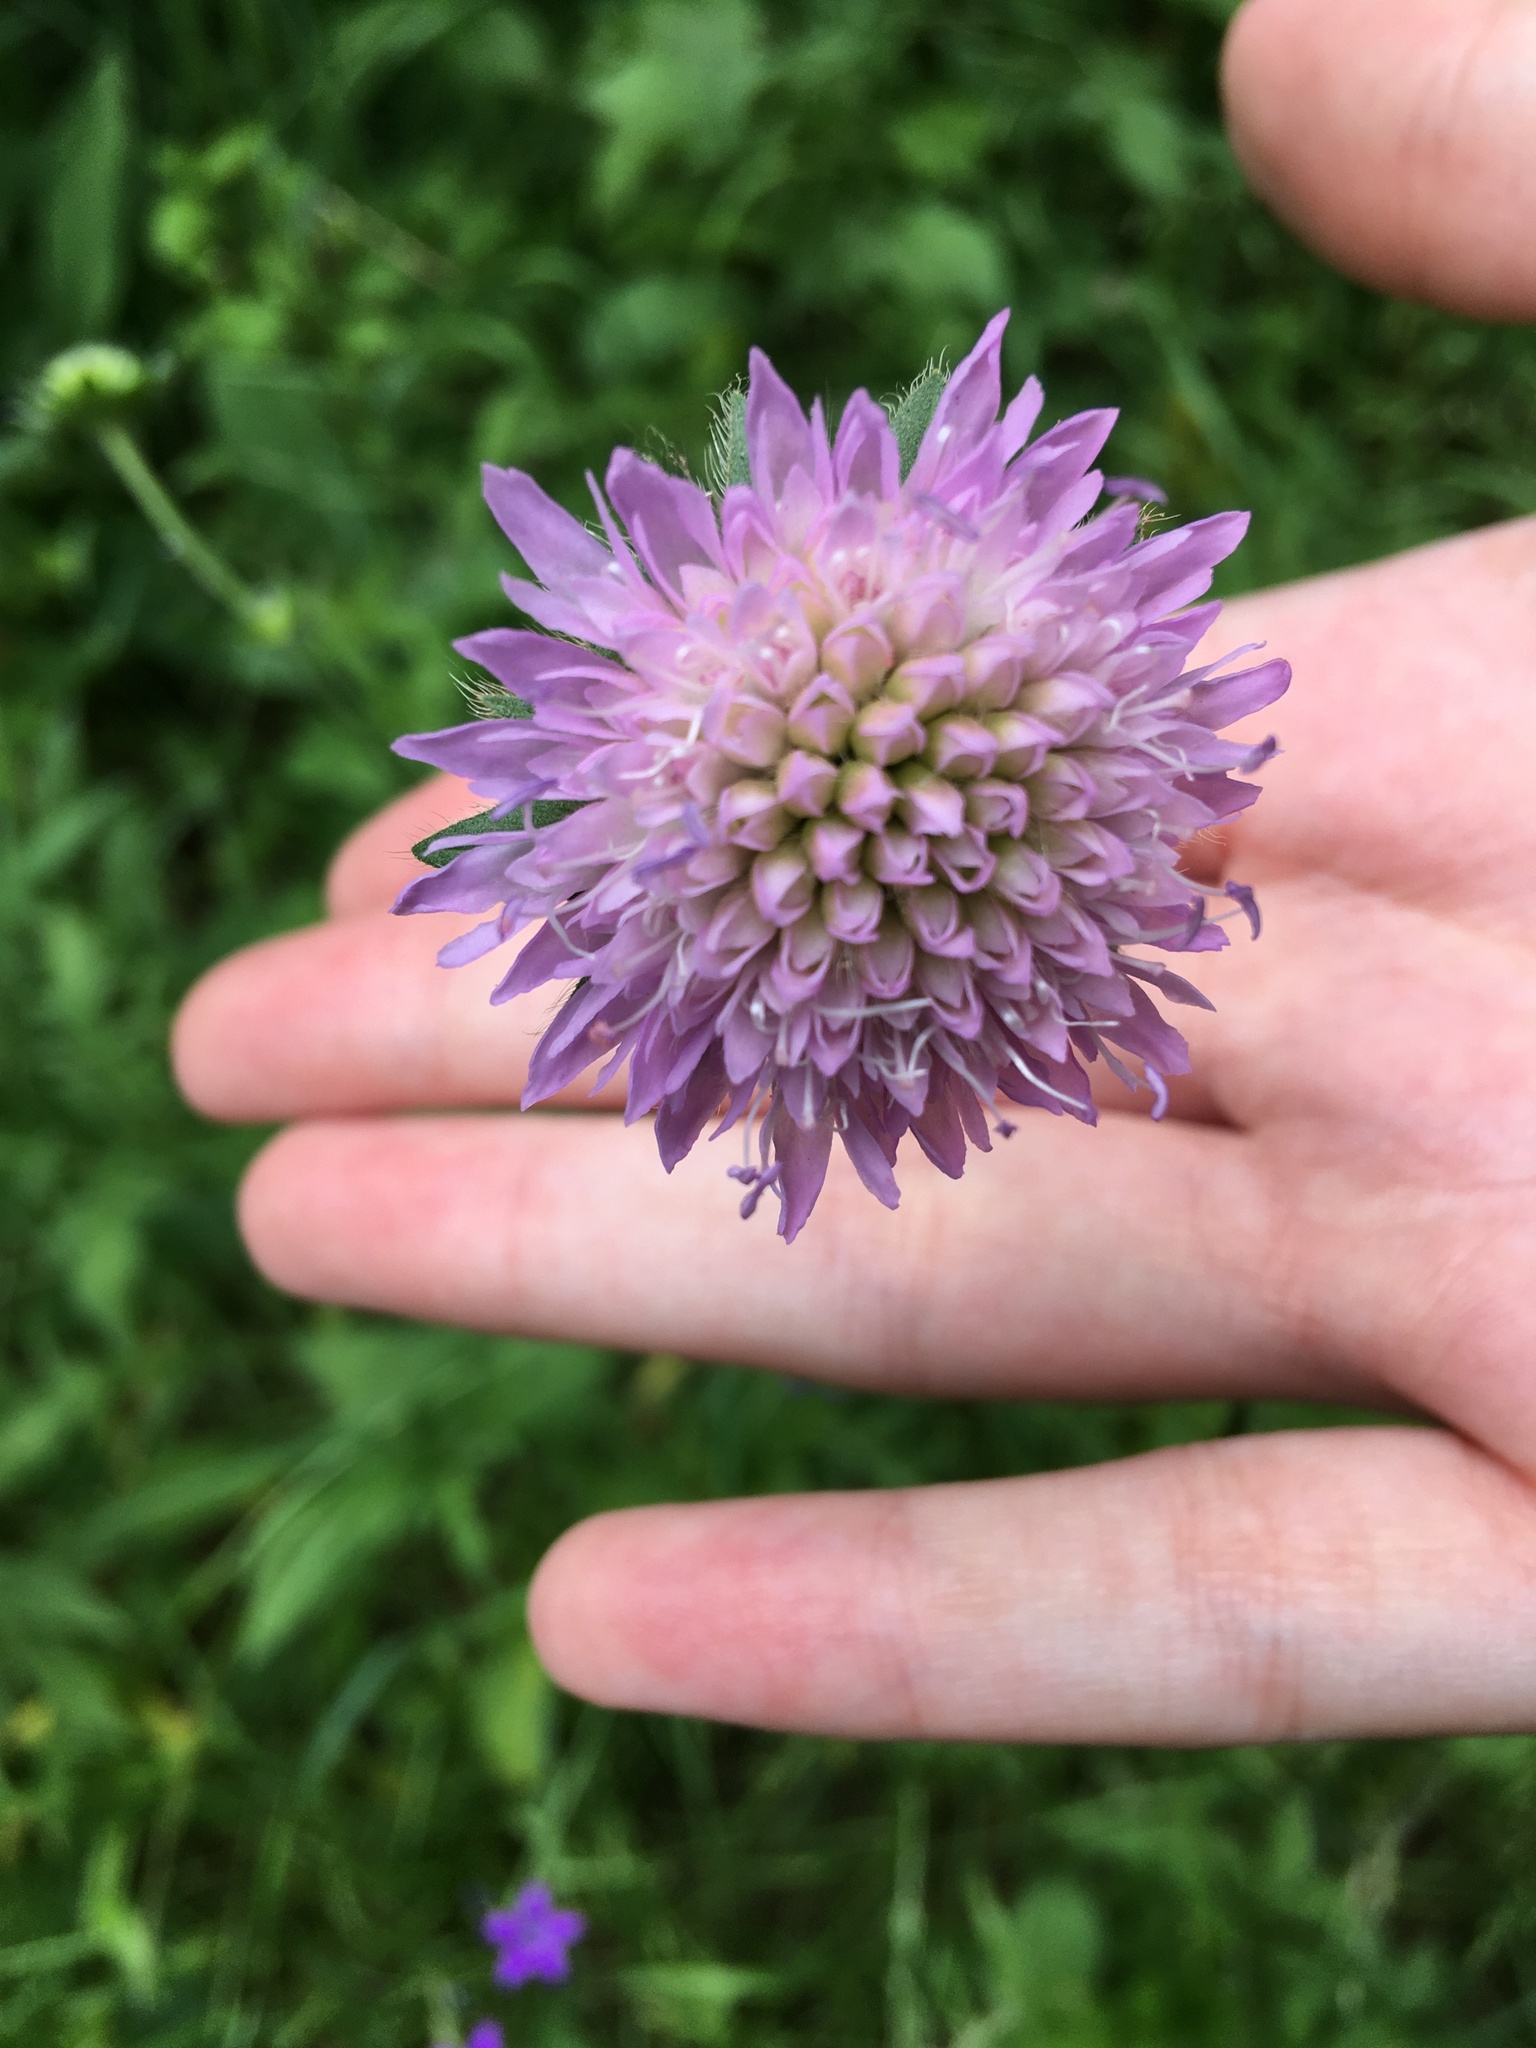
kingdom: Plantae
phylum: Tracheophyta
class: Magnoliopsida
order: Dipsacales
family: Caprifoliaceae
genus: Knautia
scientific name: Knautia arvensis
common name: Field scabiosa
